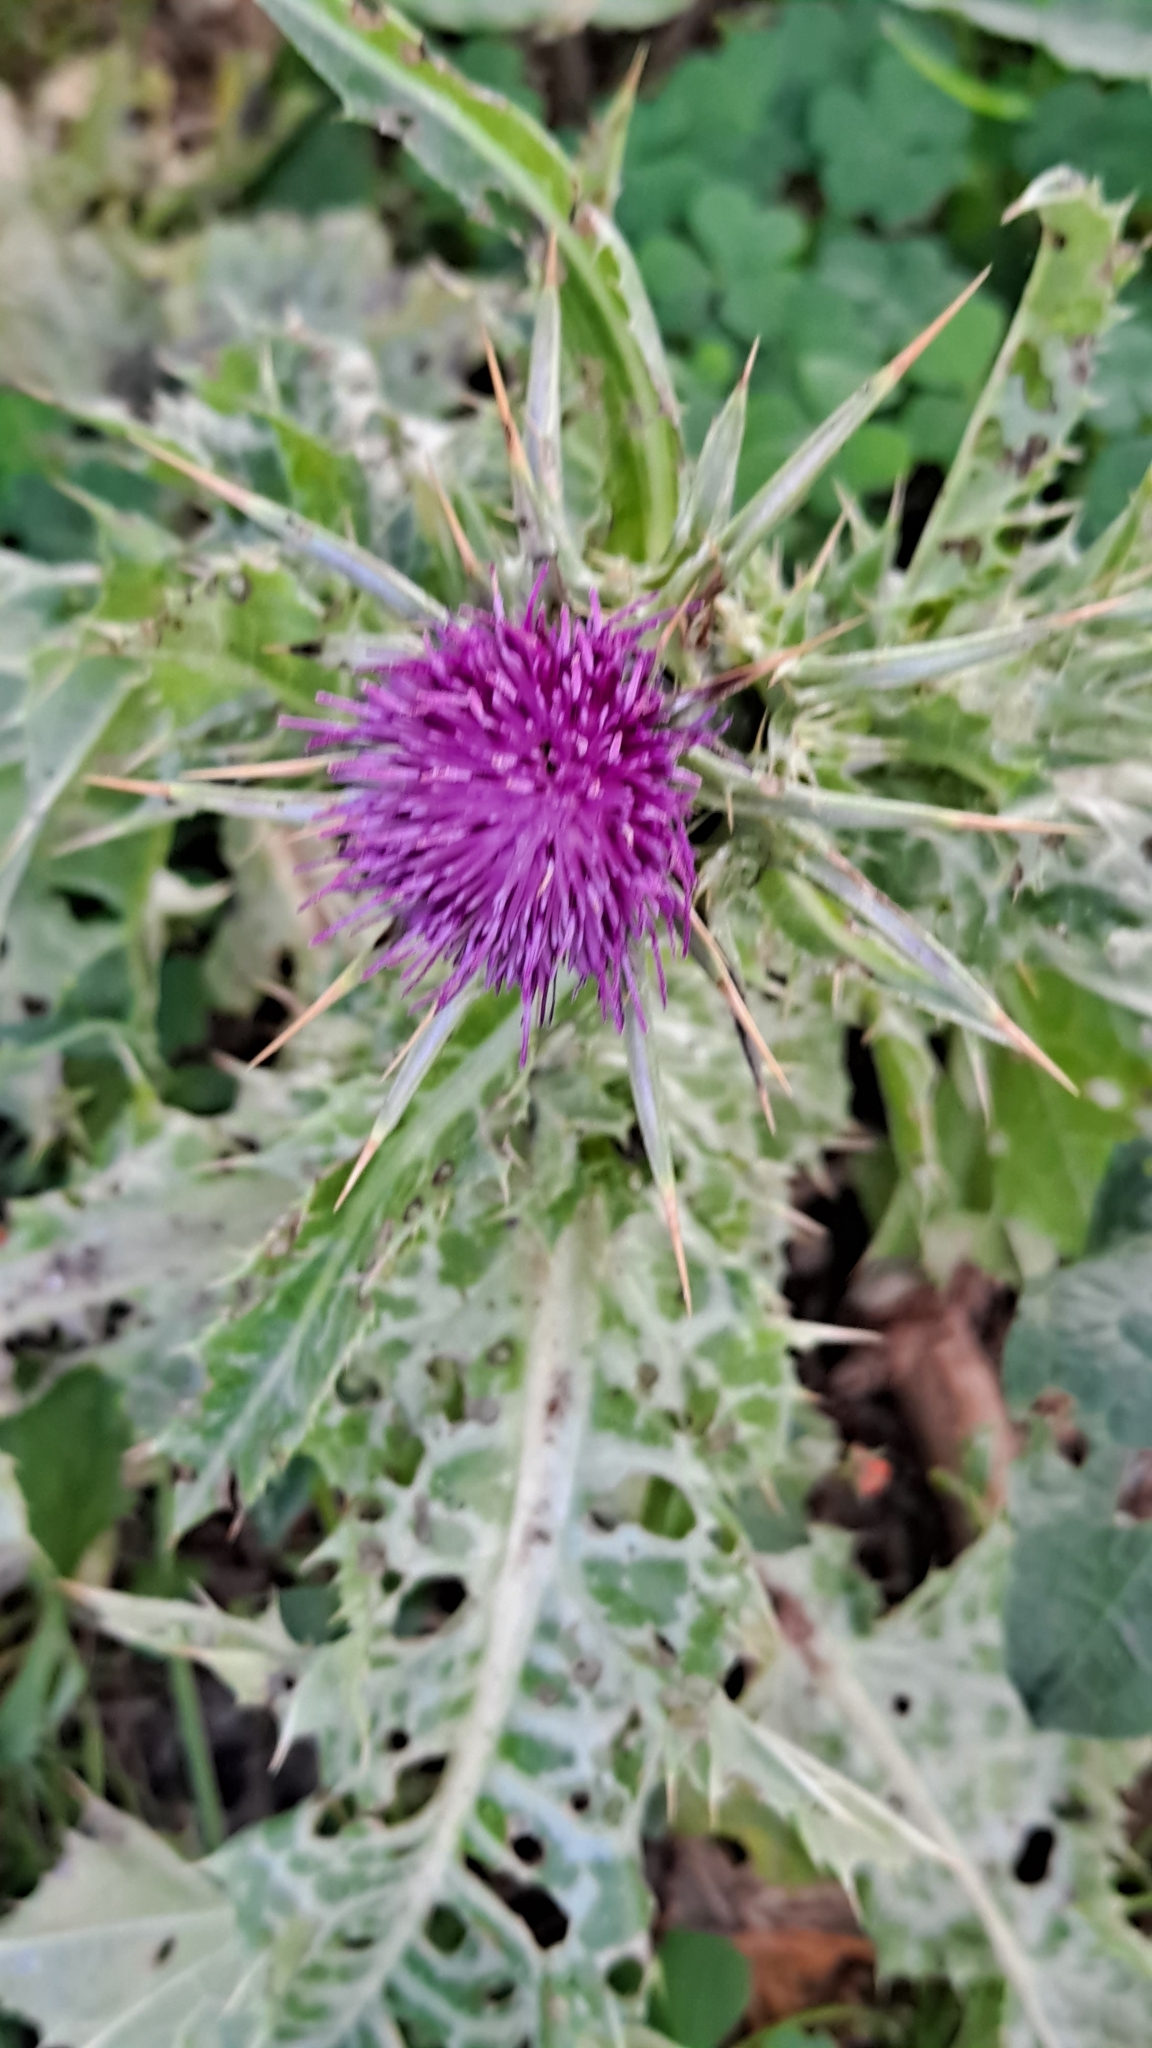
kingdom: Plantae
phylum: Tracheophyta
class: Magnoliopsida
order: Asterales
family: Asteraceae
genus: Silybum
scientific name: Silybum marianum
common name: Milk thistle
